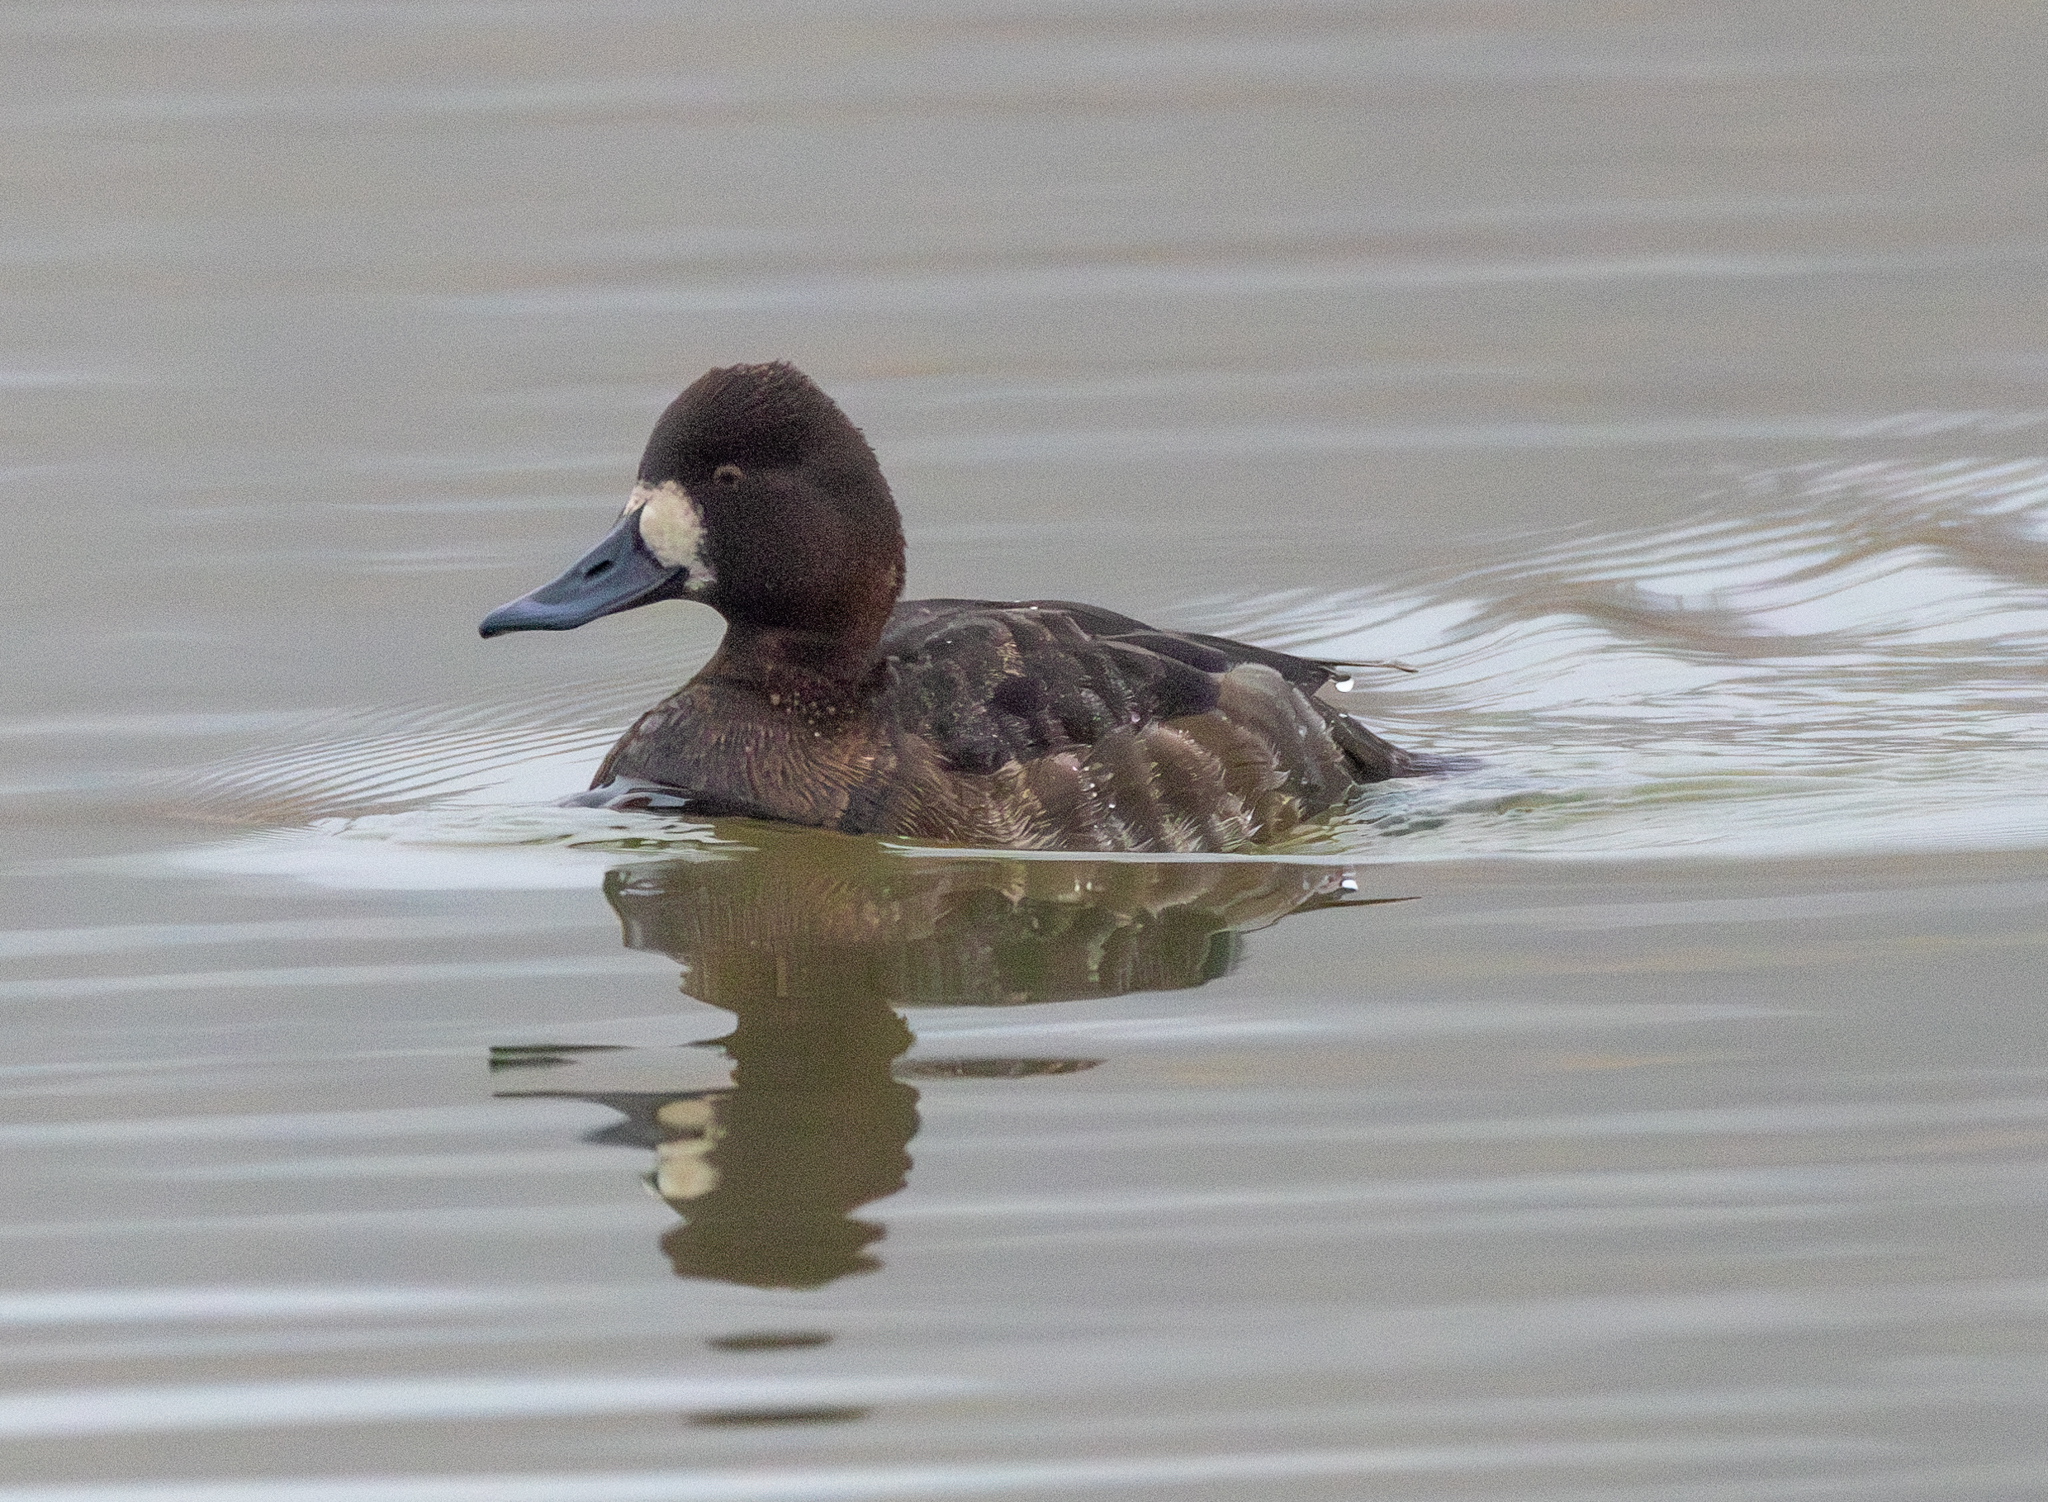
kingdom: Animalia
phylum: Chordata
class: Aves
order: Anseriformes
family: Anatidae
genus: Aythya
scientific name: Aythya affinis
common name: Lesser scaup
